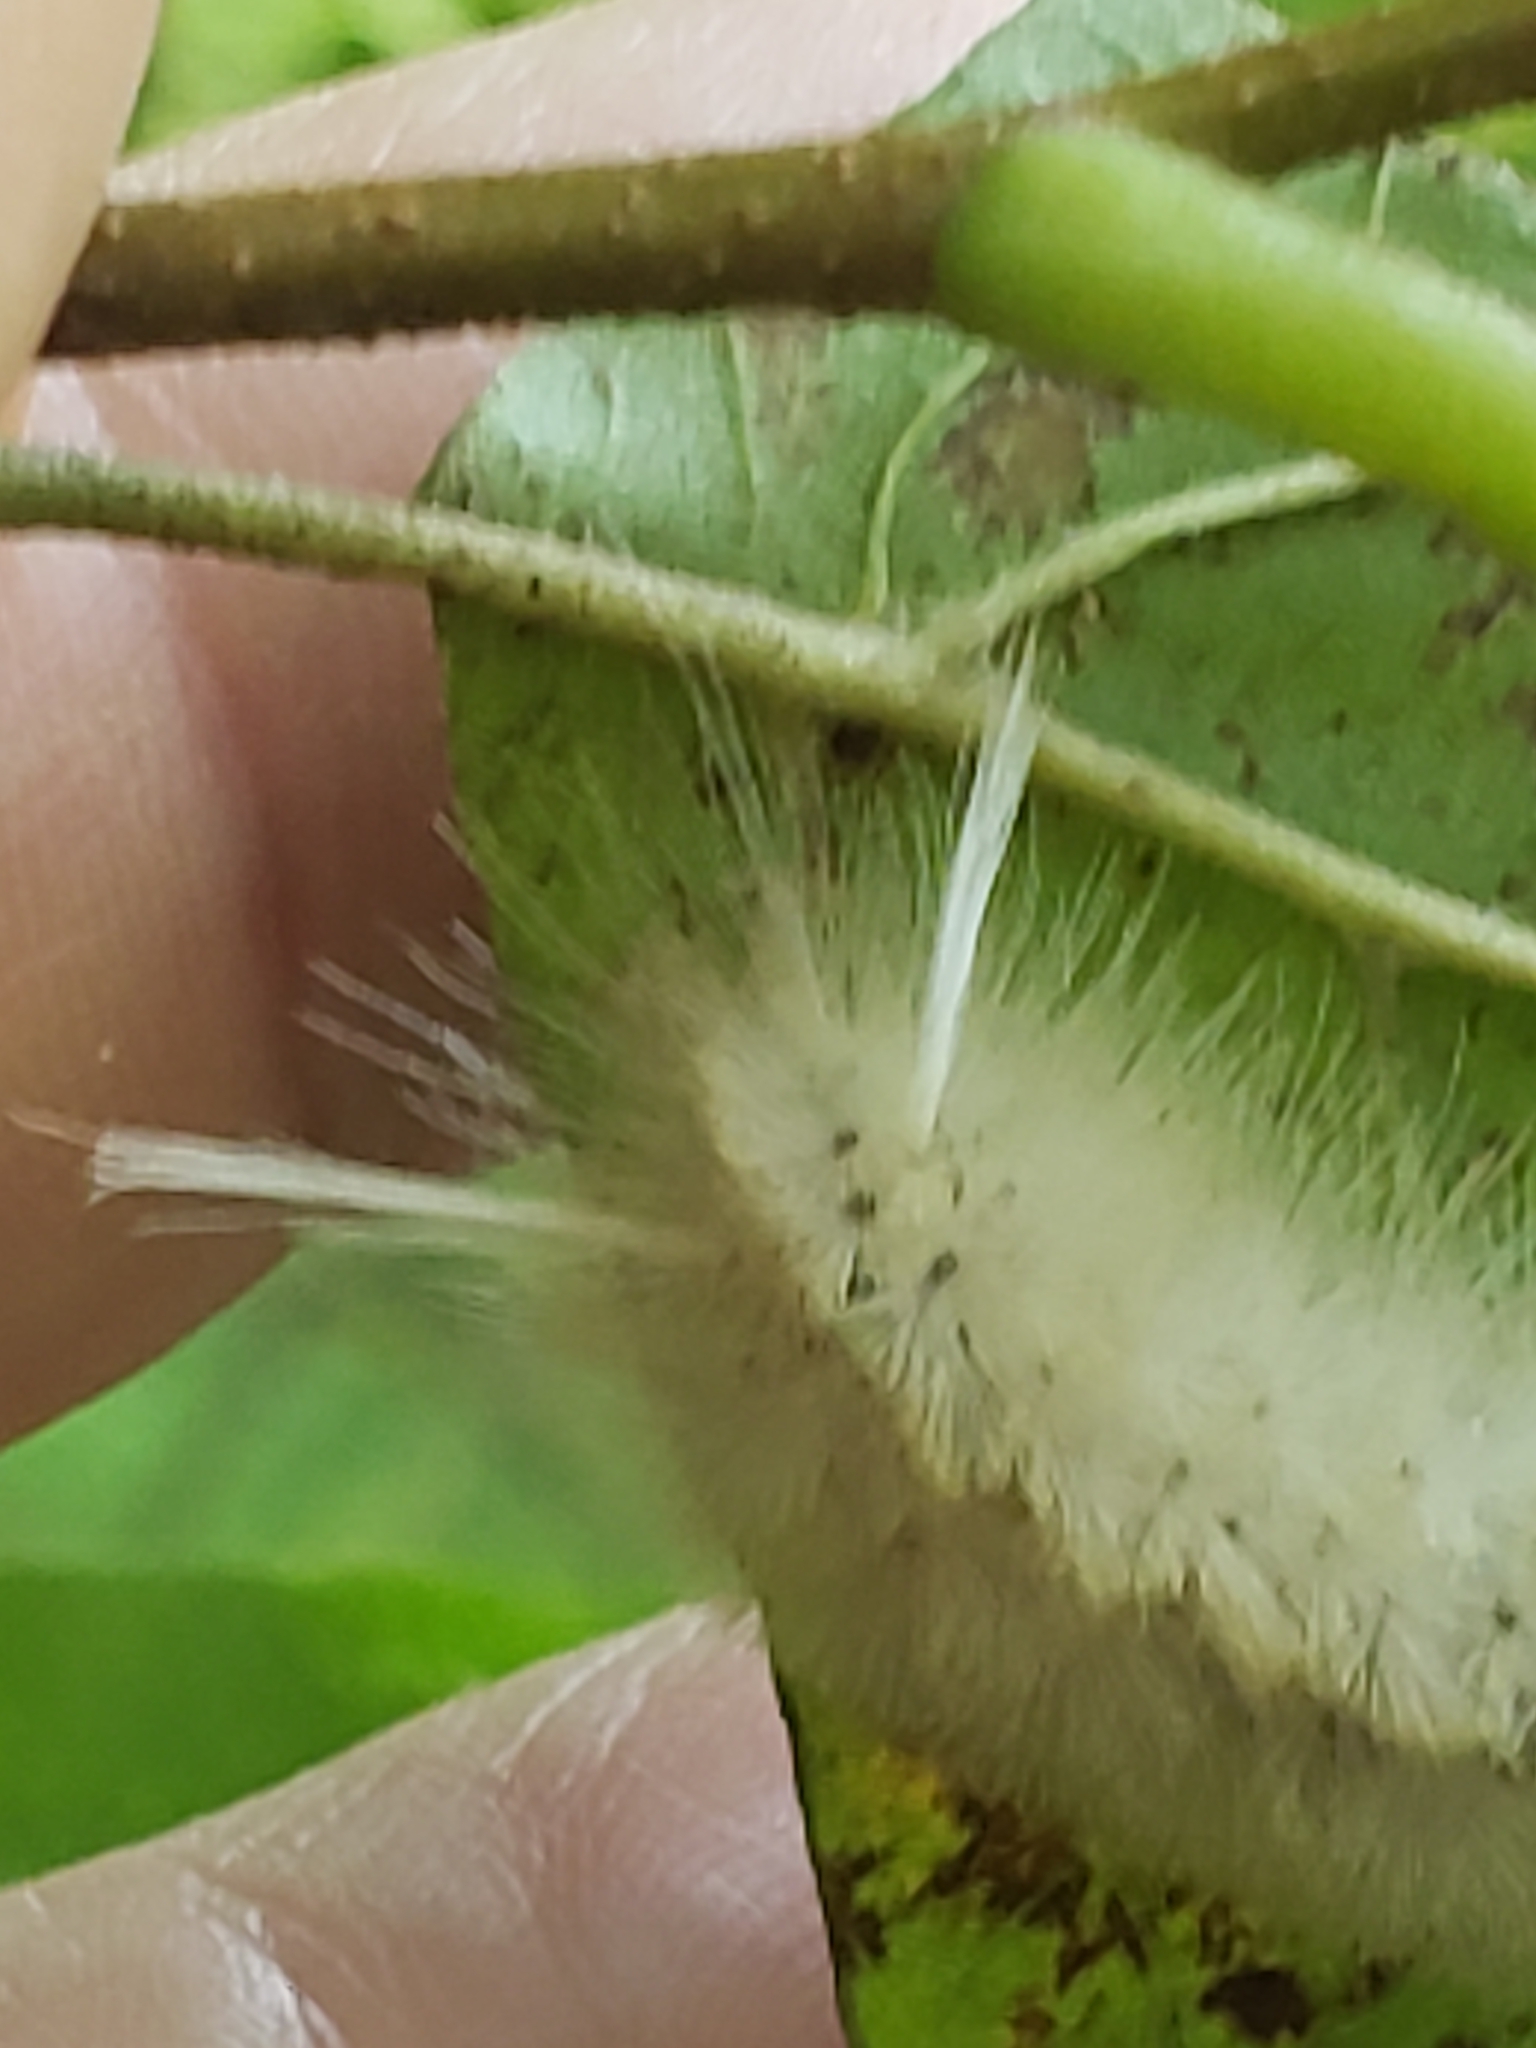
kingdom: Animalia
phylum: Arthropoda
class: Insecta
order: Lepidoptera
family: Erebidae
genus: Halysidota
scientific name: Halysidota harrisii
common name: Sycamore tussock moth
